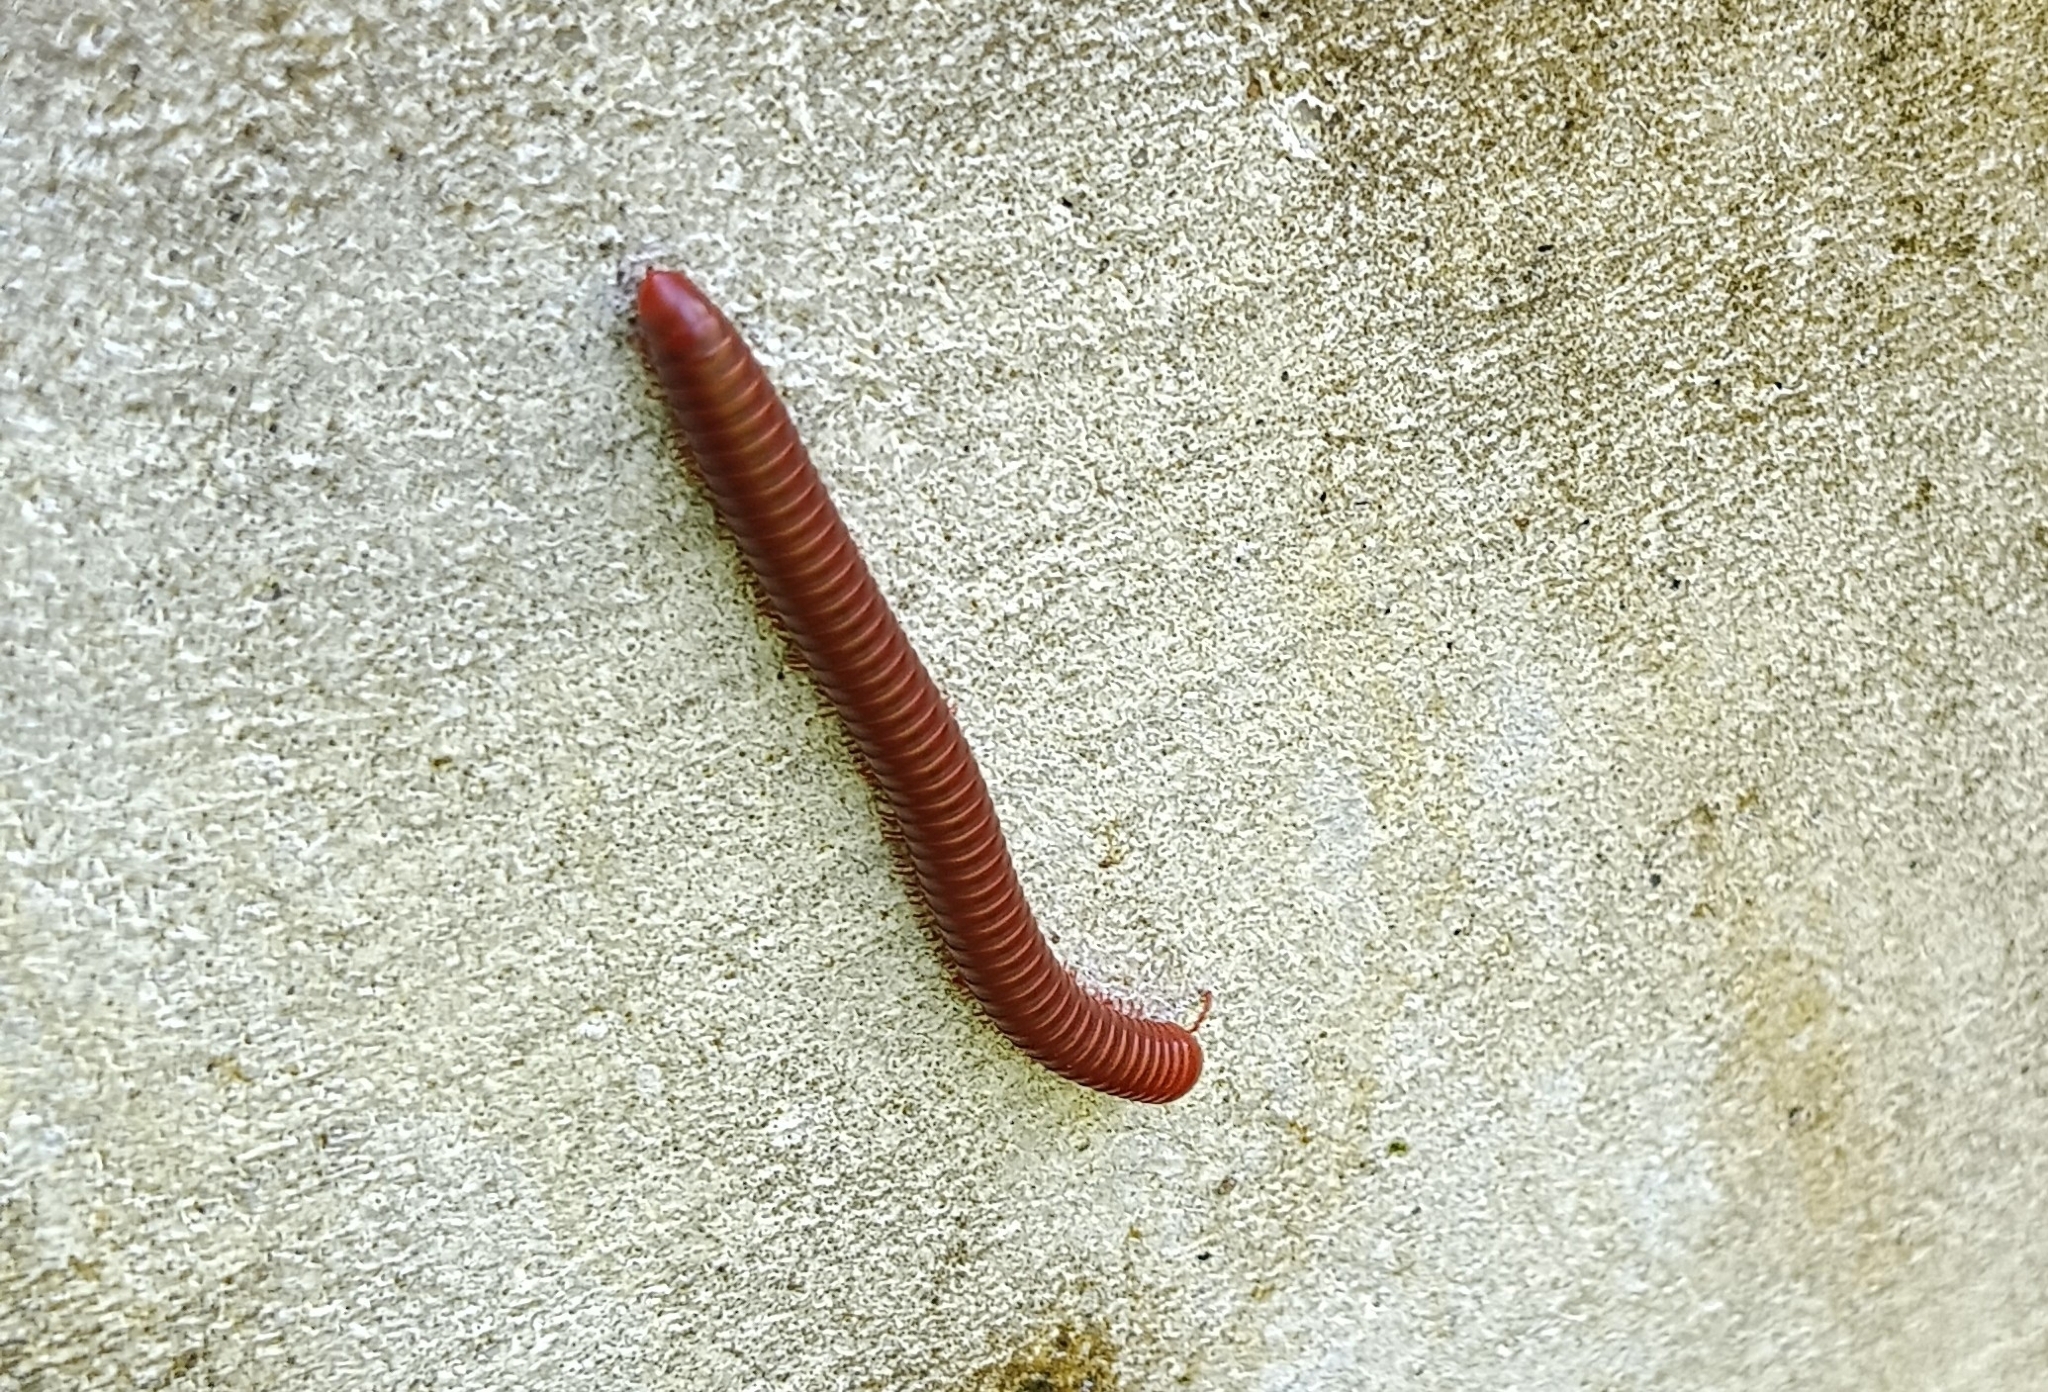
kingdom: Animalia
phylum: Arthropoda
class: Diplopoda
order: Spirobolida
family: Pachybolidae
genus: Trigoniulus
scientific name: Trigoniulus corallinus
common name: Millipede
